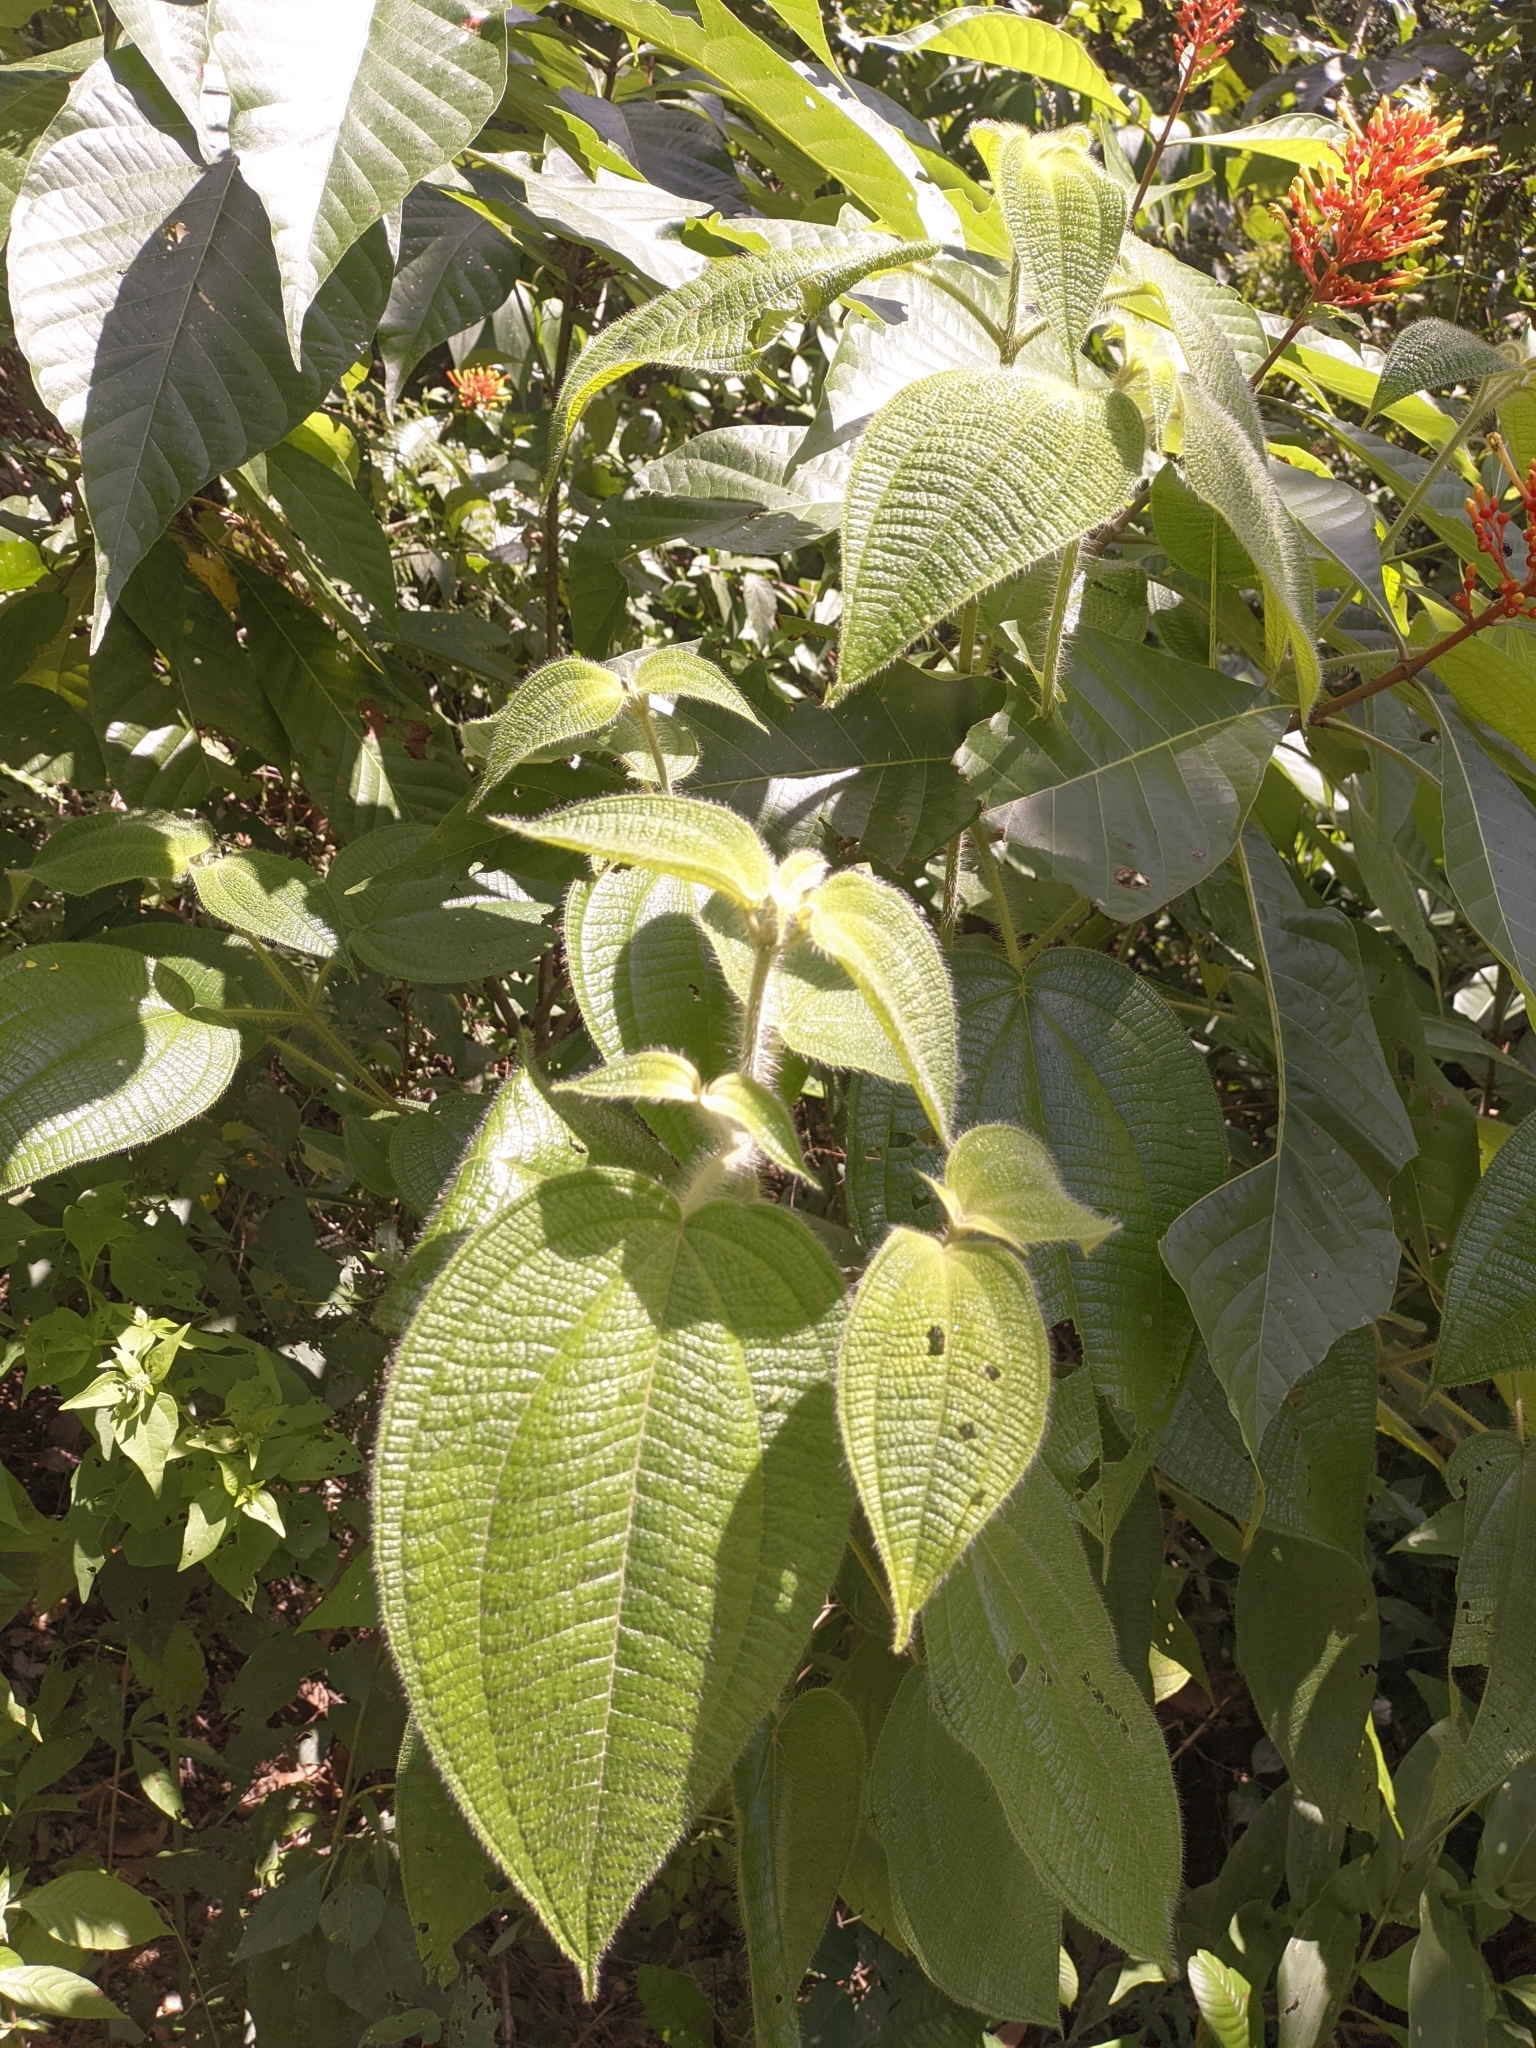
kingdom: Plantae
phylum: Tracheophyta
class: Magnoliopsida
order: Gentianales
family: Rubiaceae
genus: Isertia
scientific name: Isertia haenkeana
